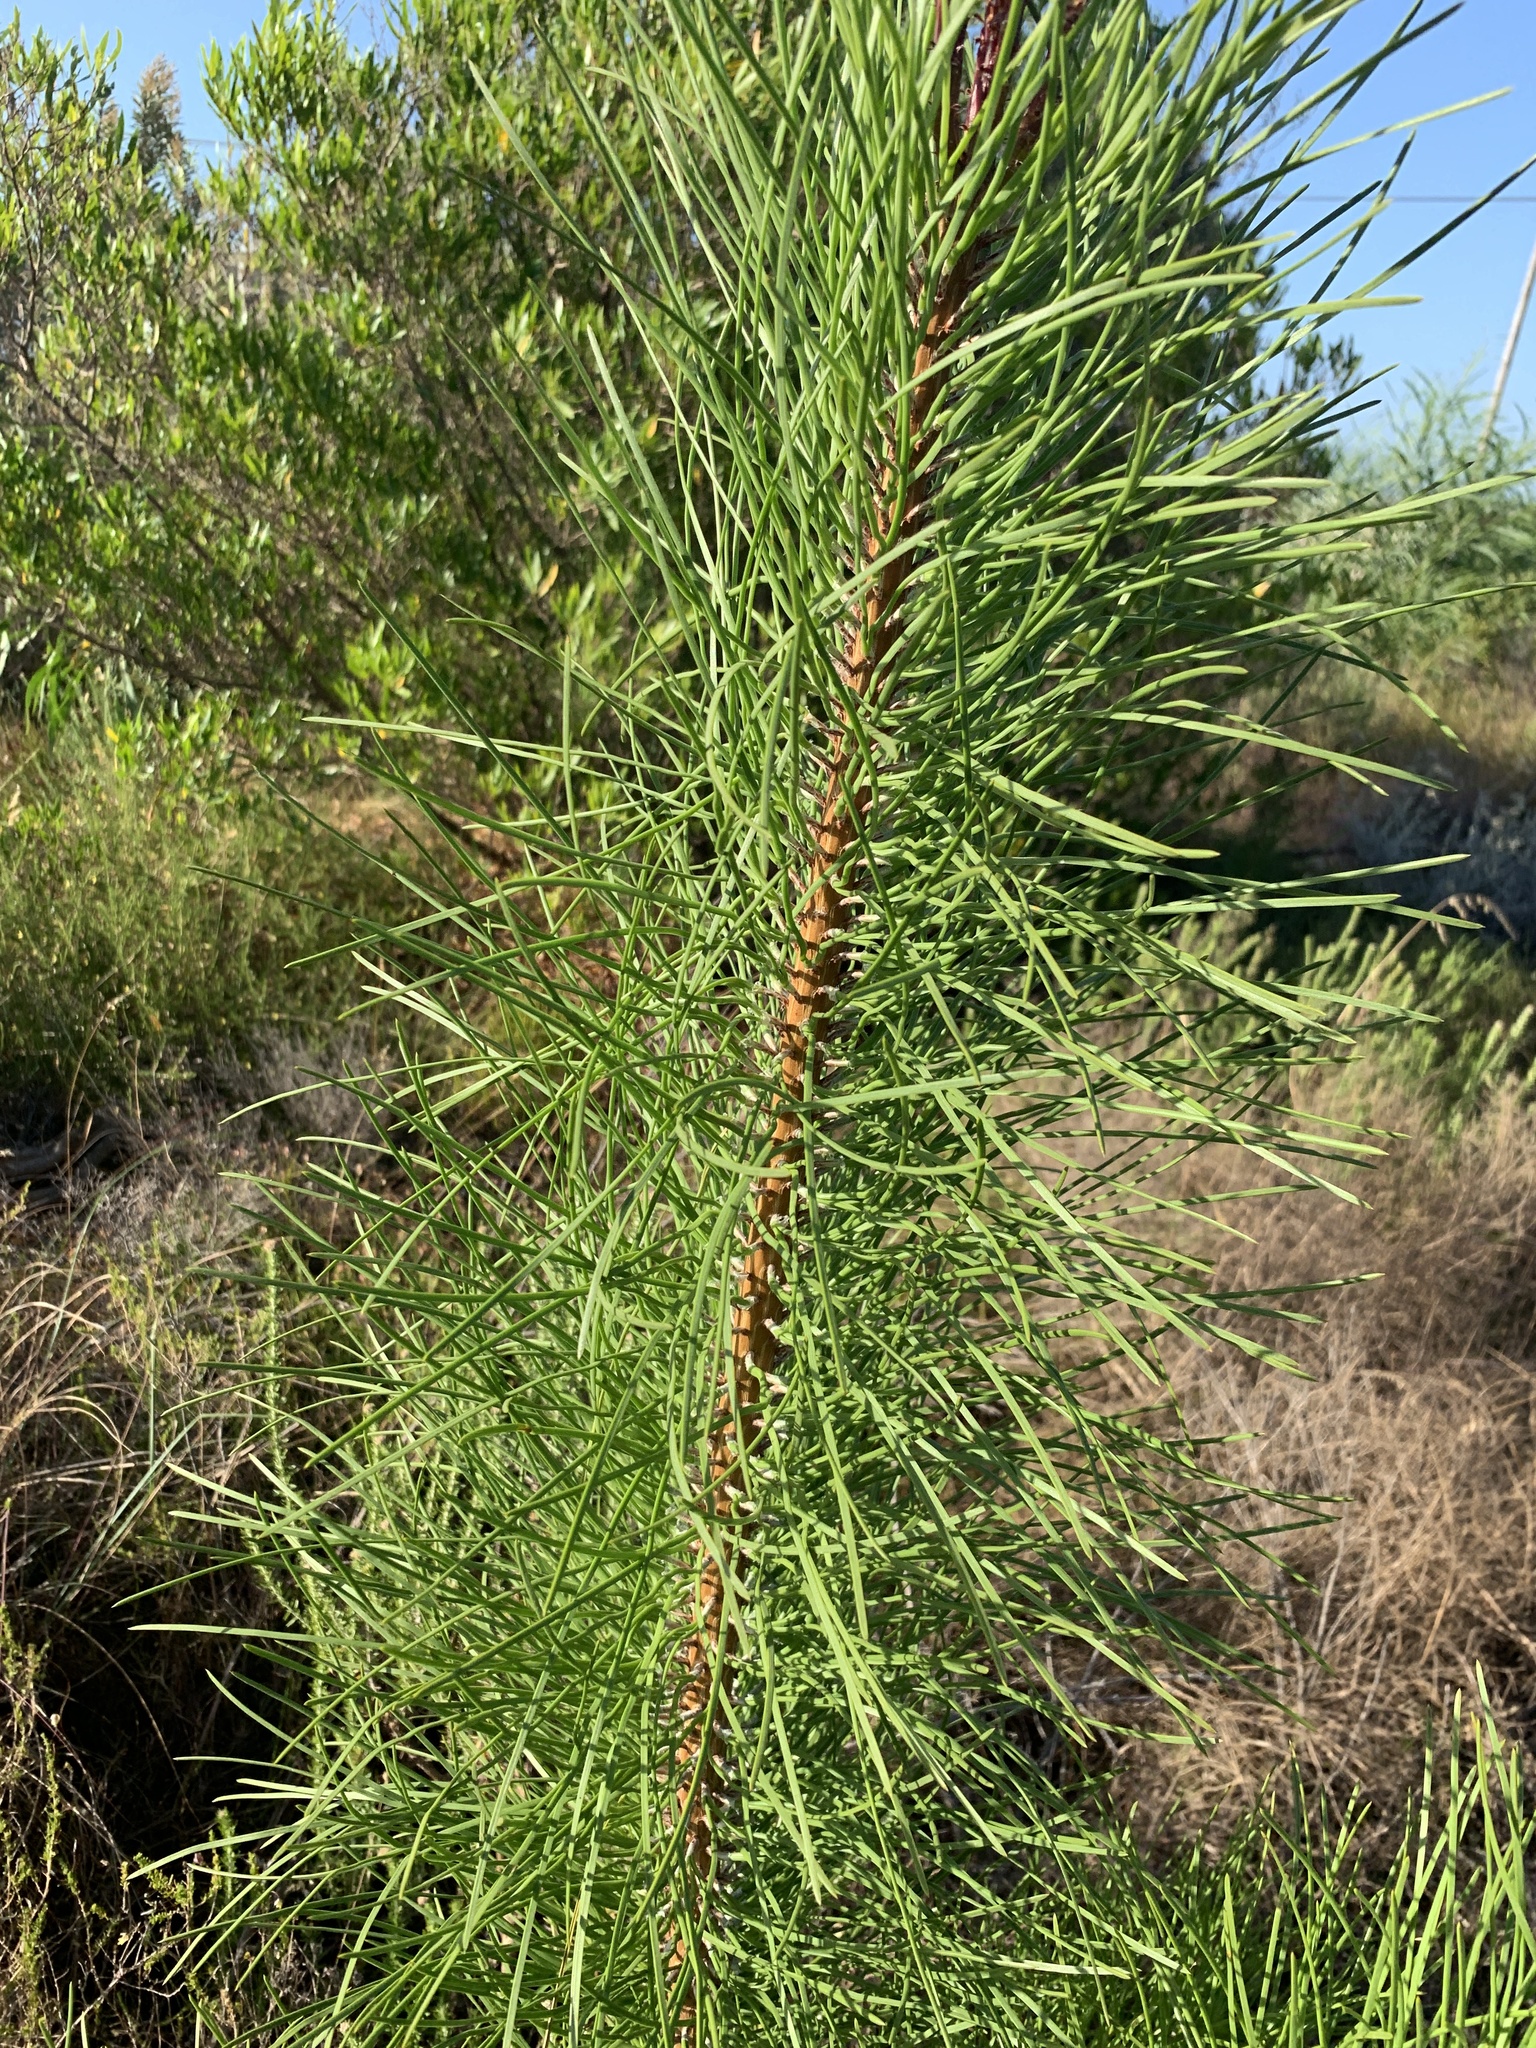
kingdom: Plantae
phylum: Tracheophyta
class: Pinopsida
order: Pinales
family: Pinaceae
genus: Pinus
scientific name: Pinus pinaster
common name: Maritime pine
